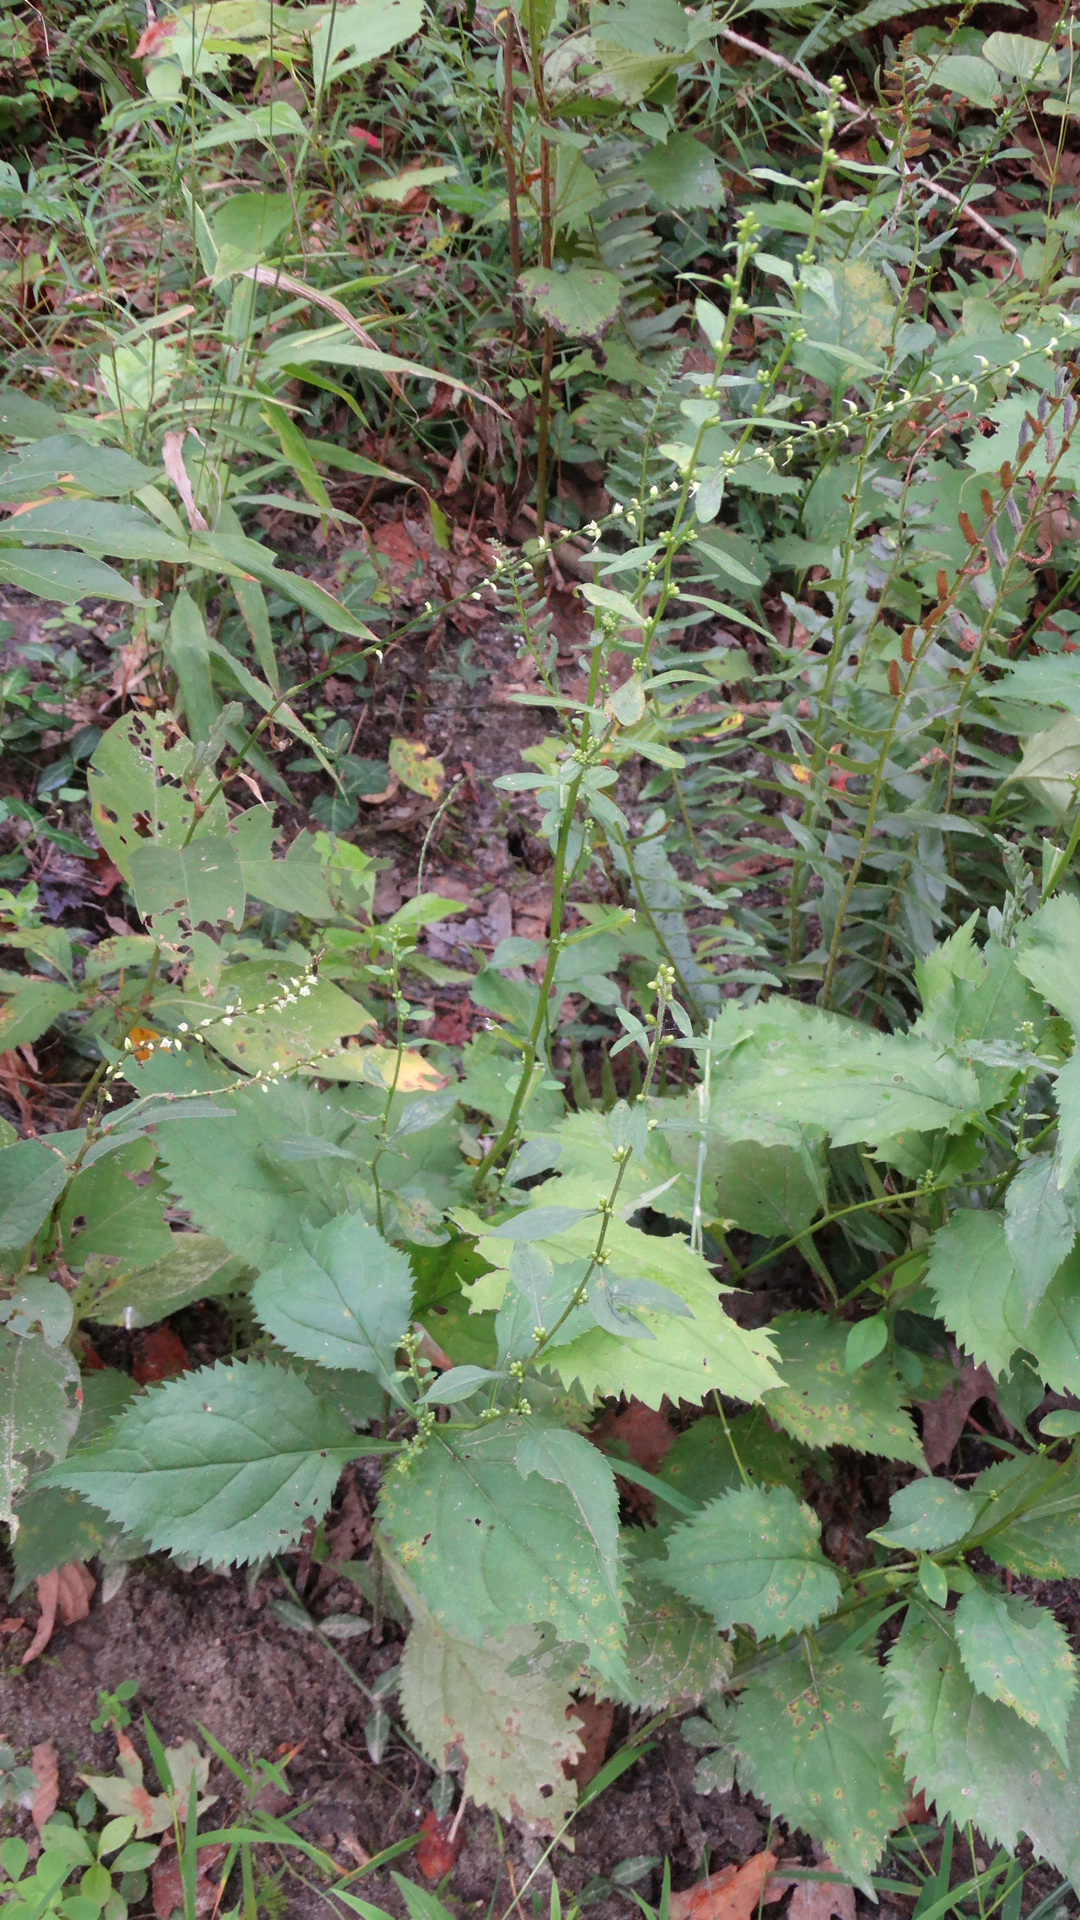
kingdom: Plantae
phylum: Tracheophyta
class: Magnoliopsida
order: Asterales
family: Asteraceae
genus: Solidago
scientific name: Solidago flexicaulis
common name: Zig-zag goldenrod
